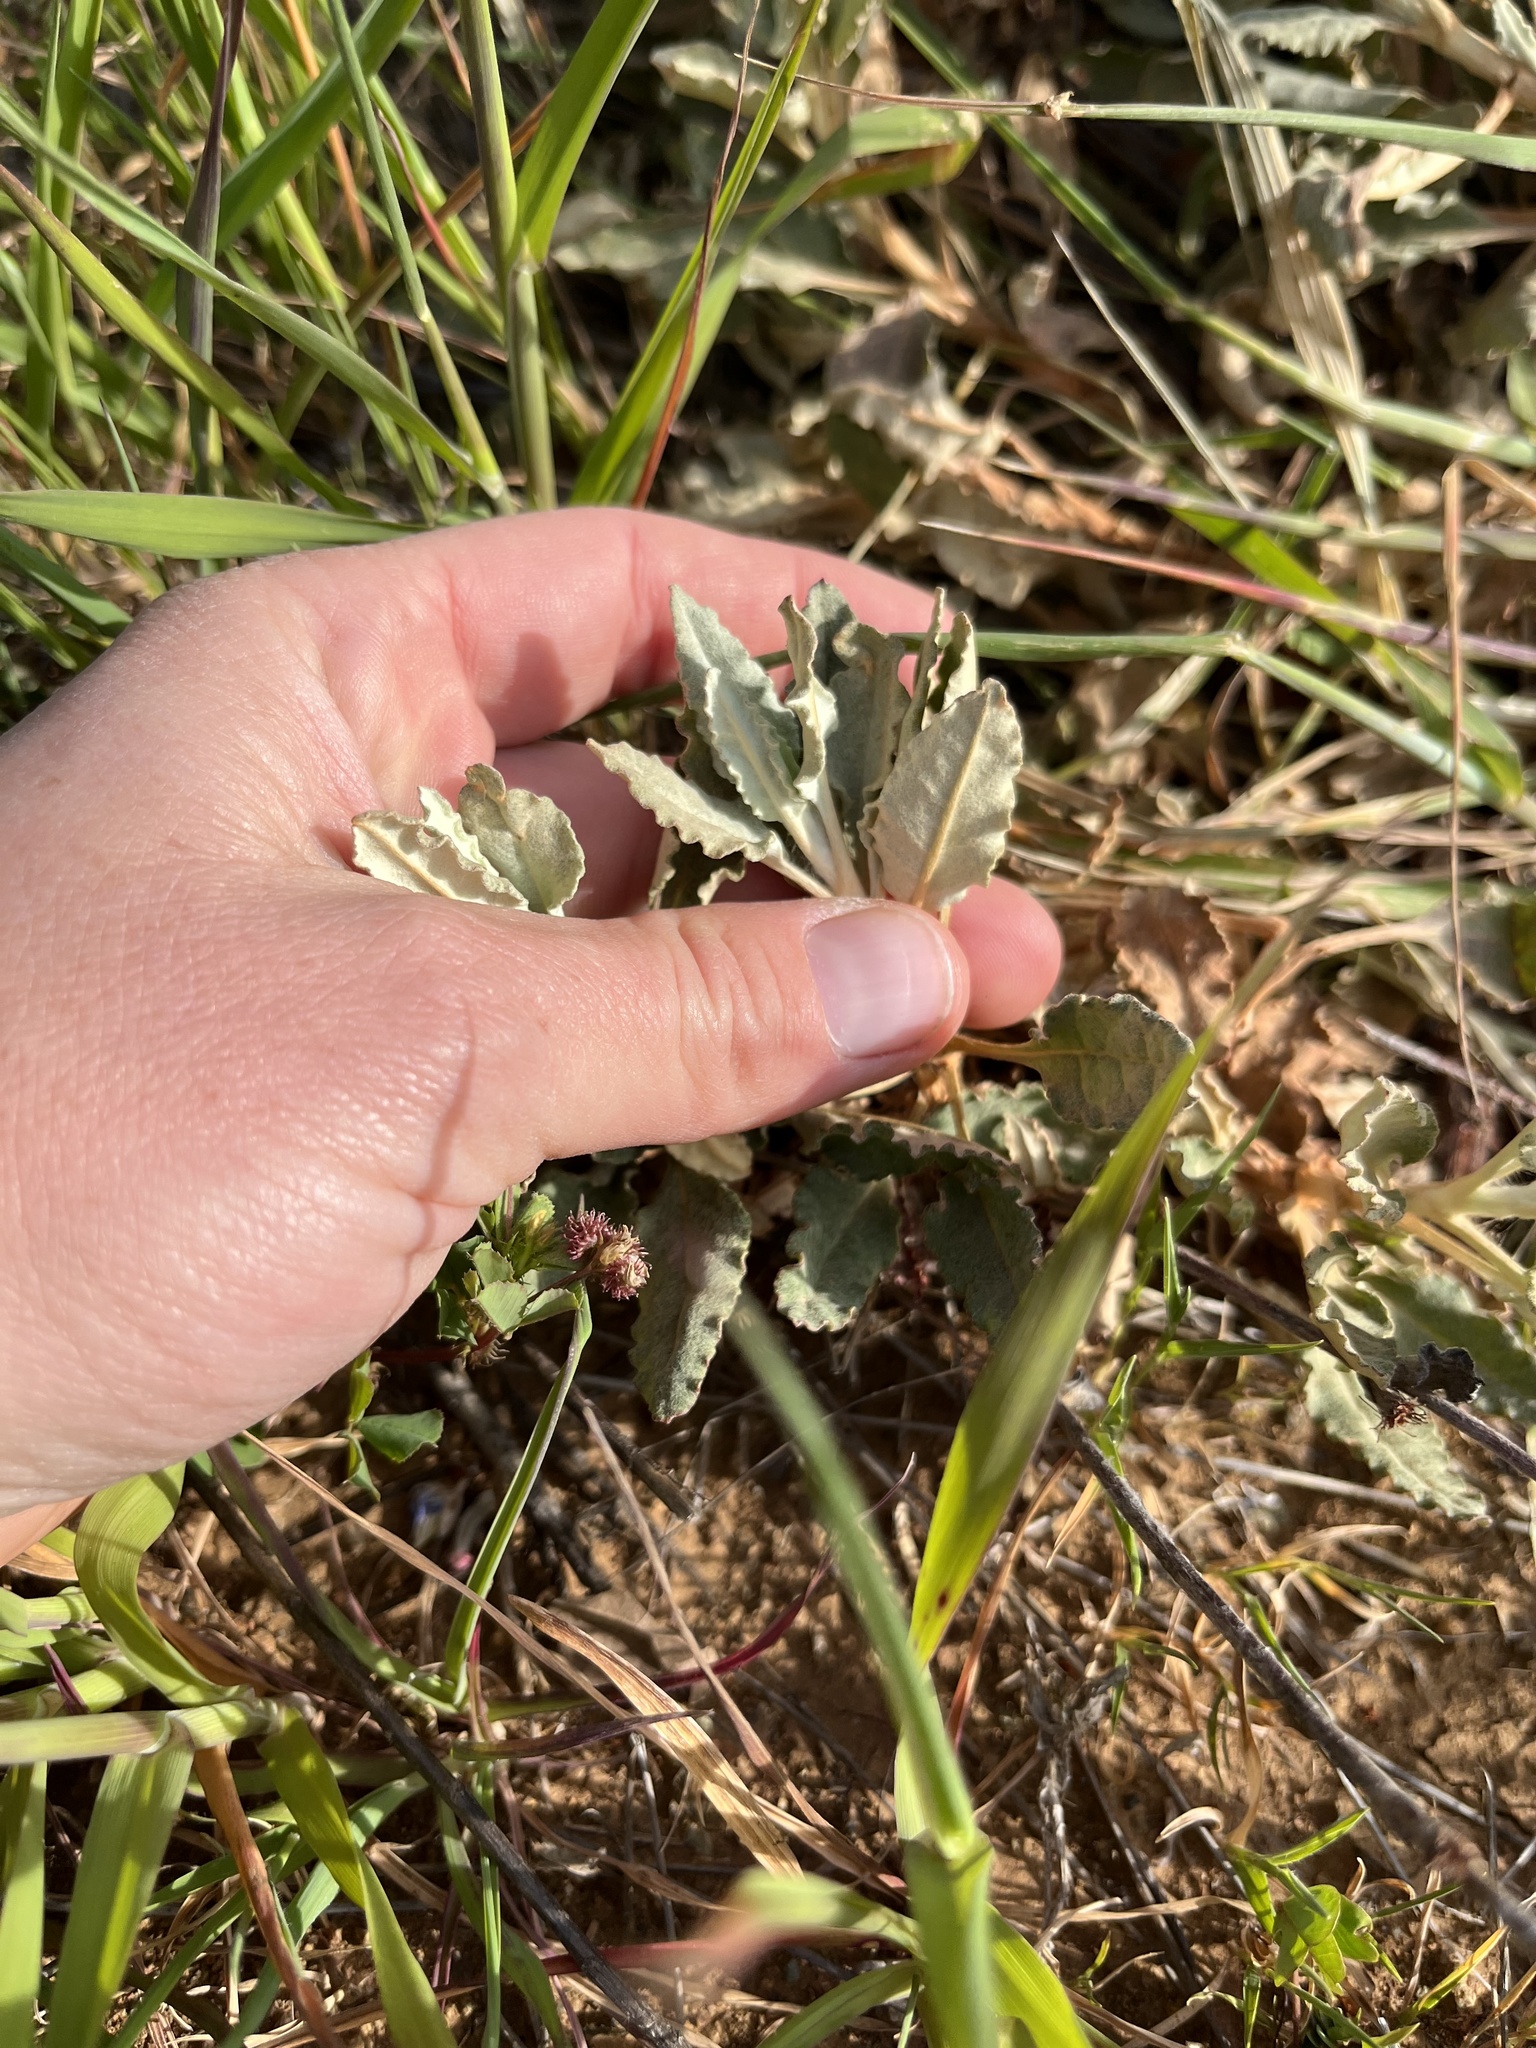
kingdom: Plantae
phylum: Tracheophyta
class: Magnoliopsida
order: Caryophyllales
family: Polygonaceae
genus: Eriogonum
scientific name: Eriogonum elongatum
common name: Long-stem wild buckwheat
